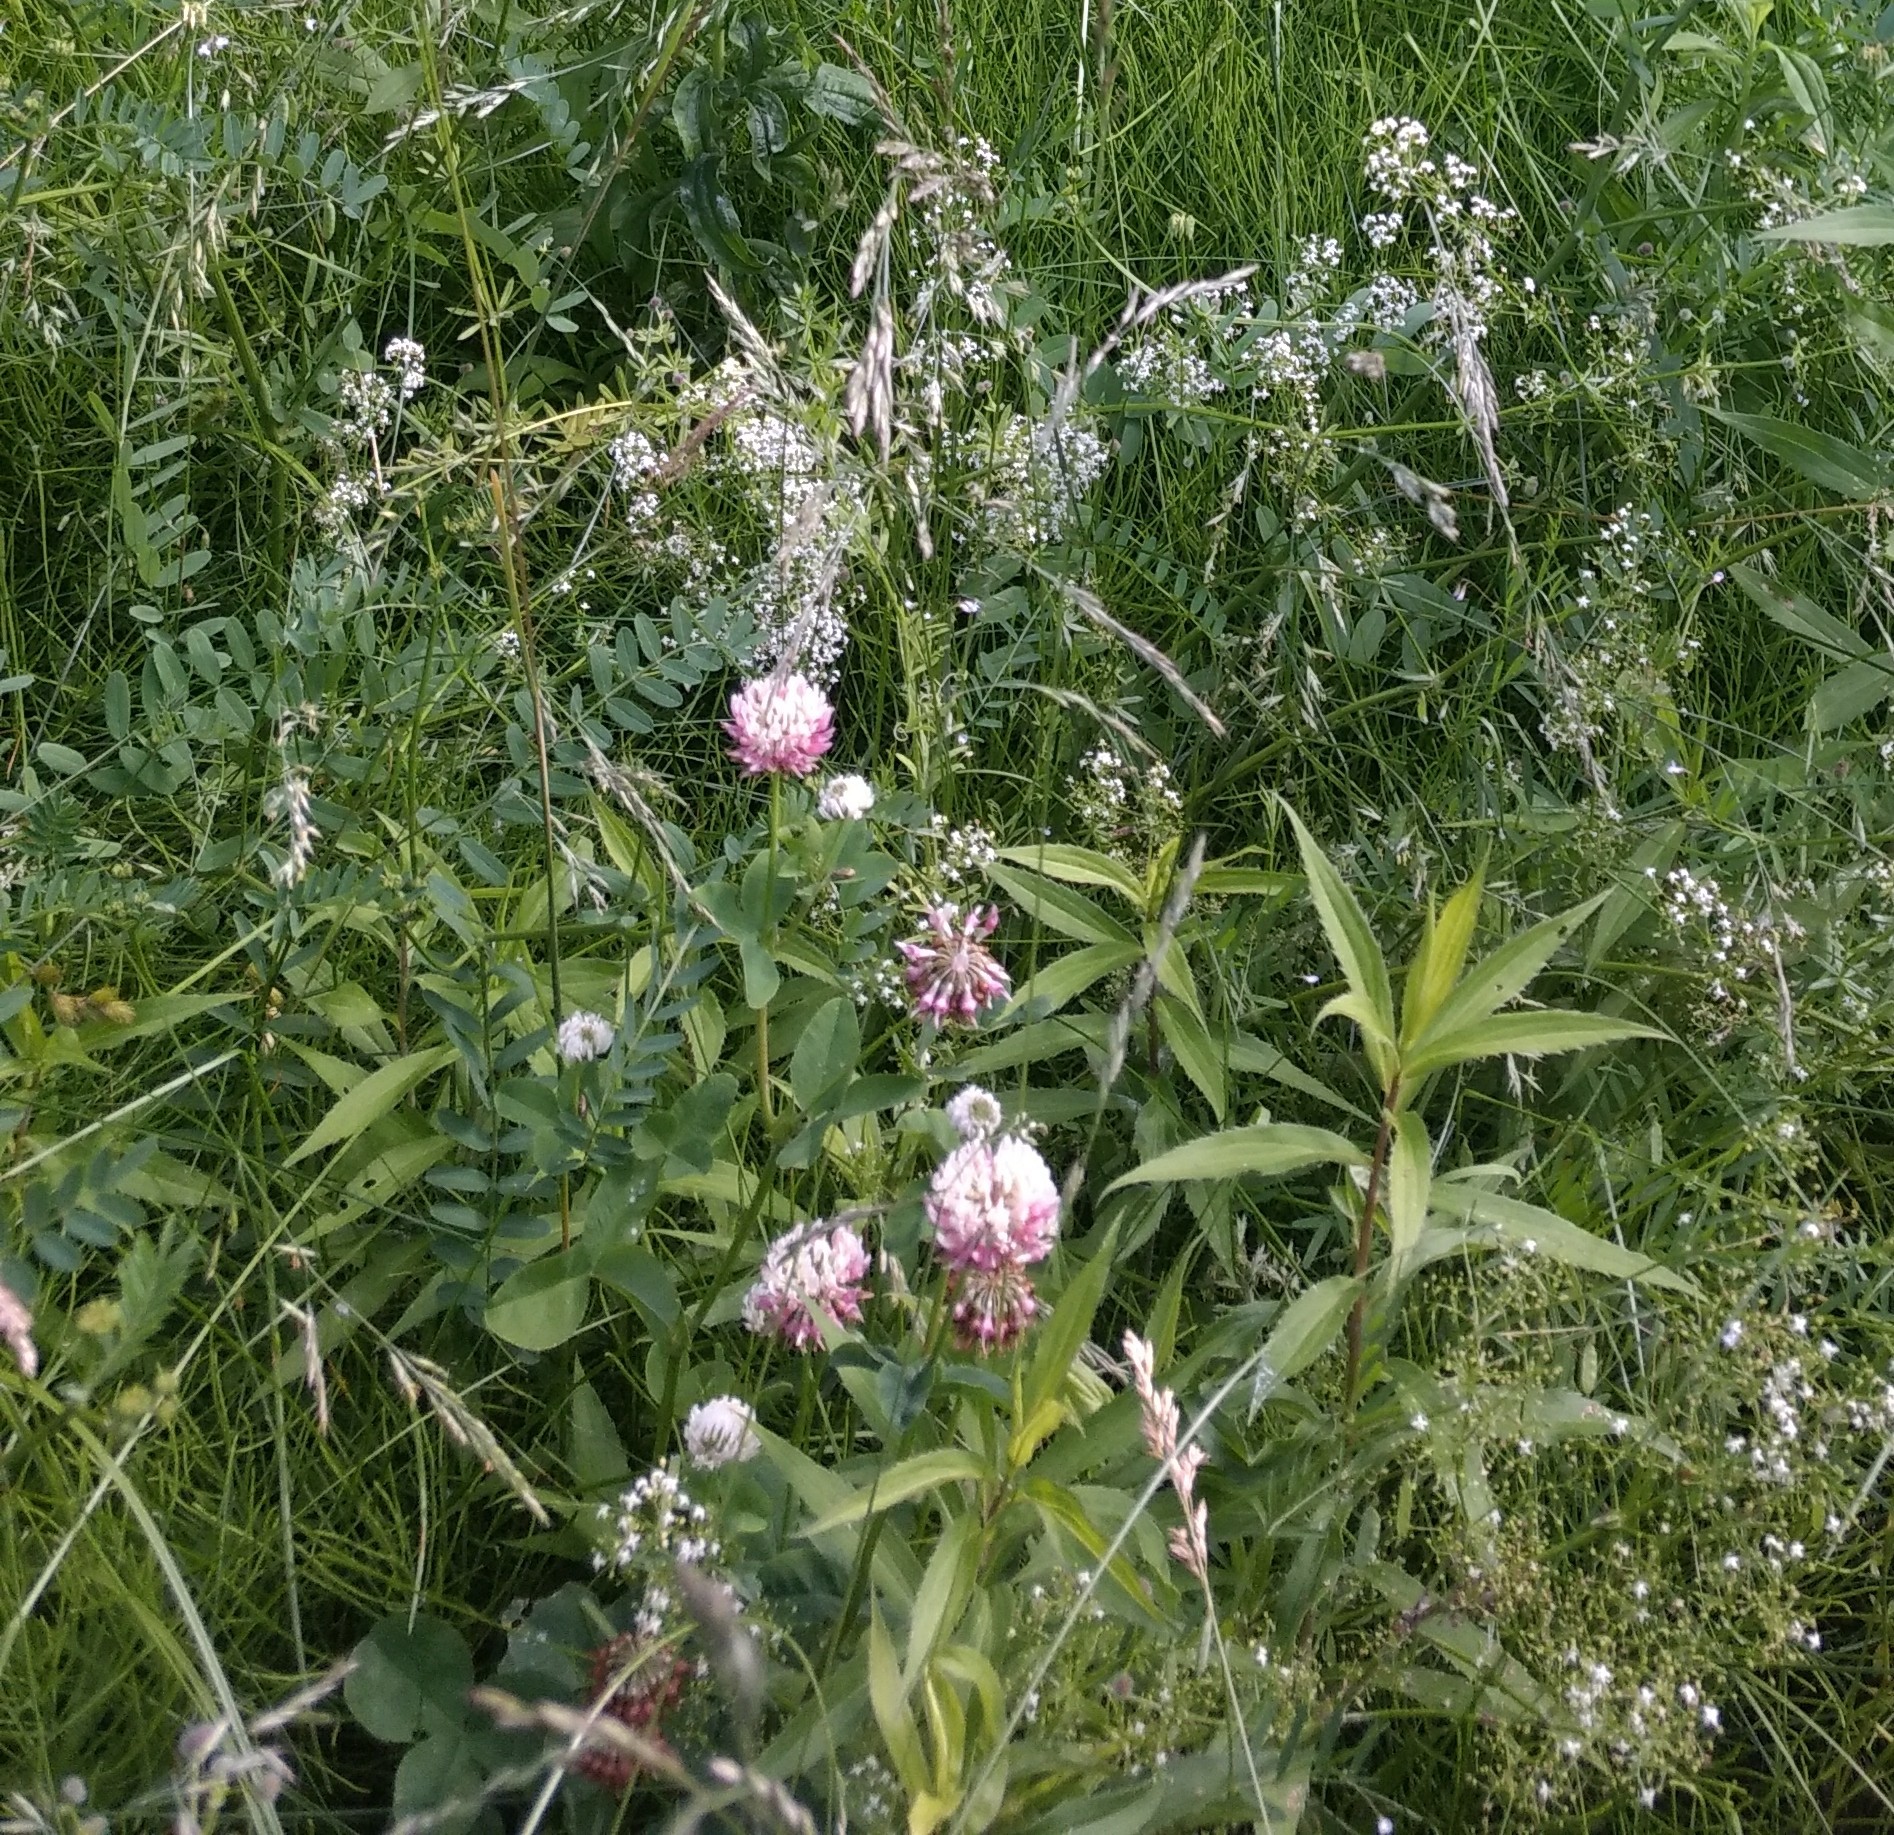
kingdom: Plantae
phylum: Tracheophyta
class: Magnoliopsida
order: Fabales
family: Fabaceae
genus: Trifolium
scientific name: Trifolium hybridum
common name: Alsike clover
